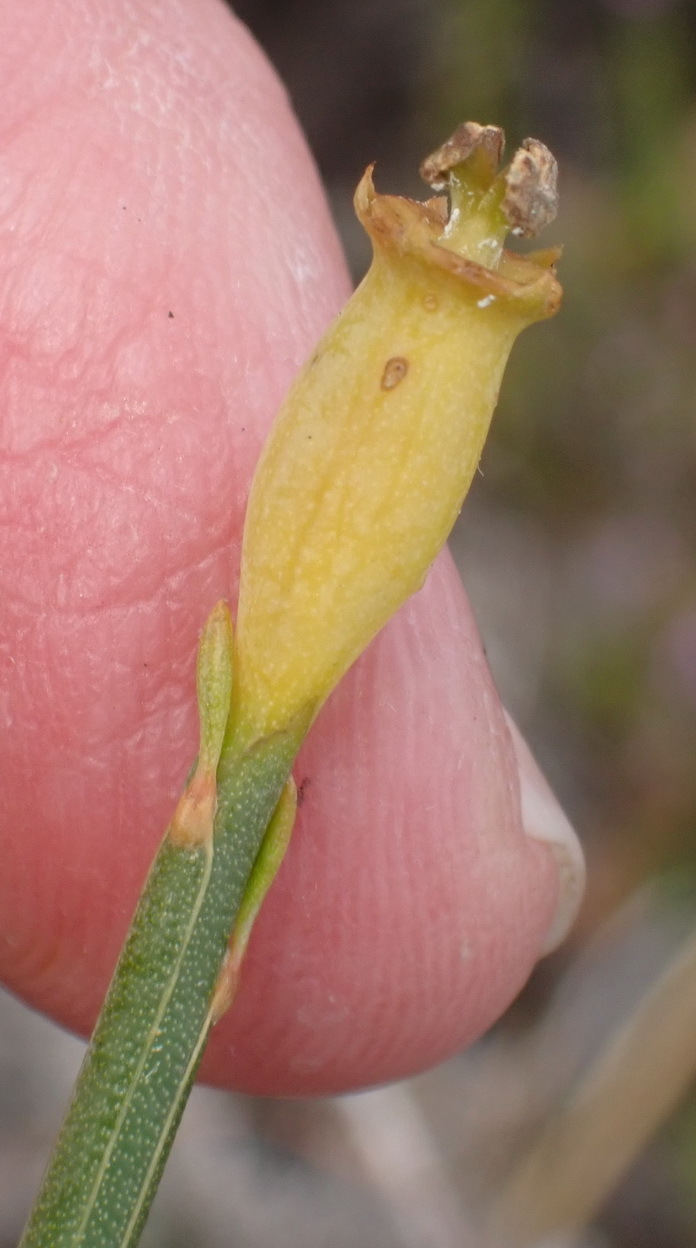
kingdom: Plantae
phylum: Tracheophyta
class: Magnoliopsida
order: Solanales
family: Montiniaceae
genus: Montinia
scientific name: Montinia caryophyllacea
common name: Wild clove-bush
